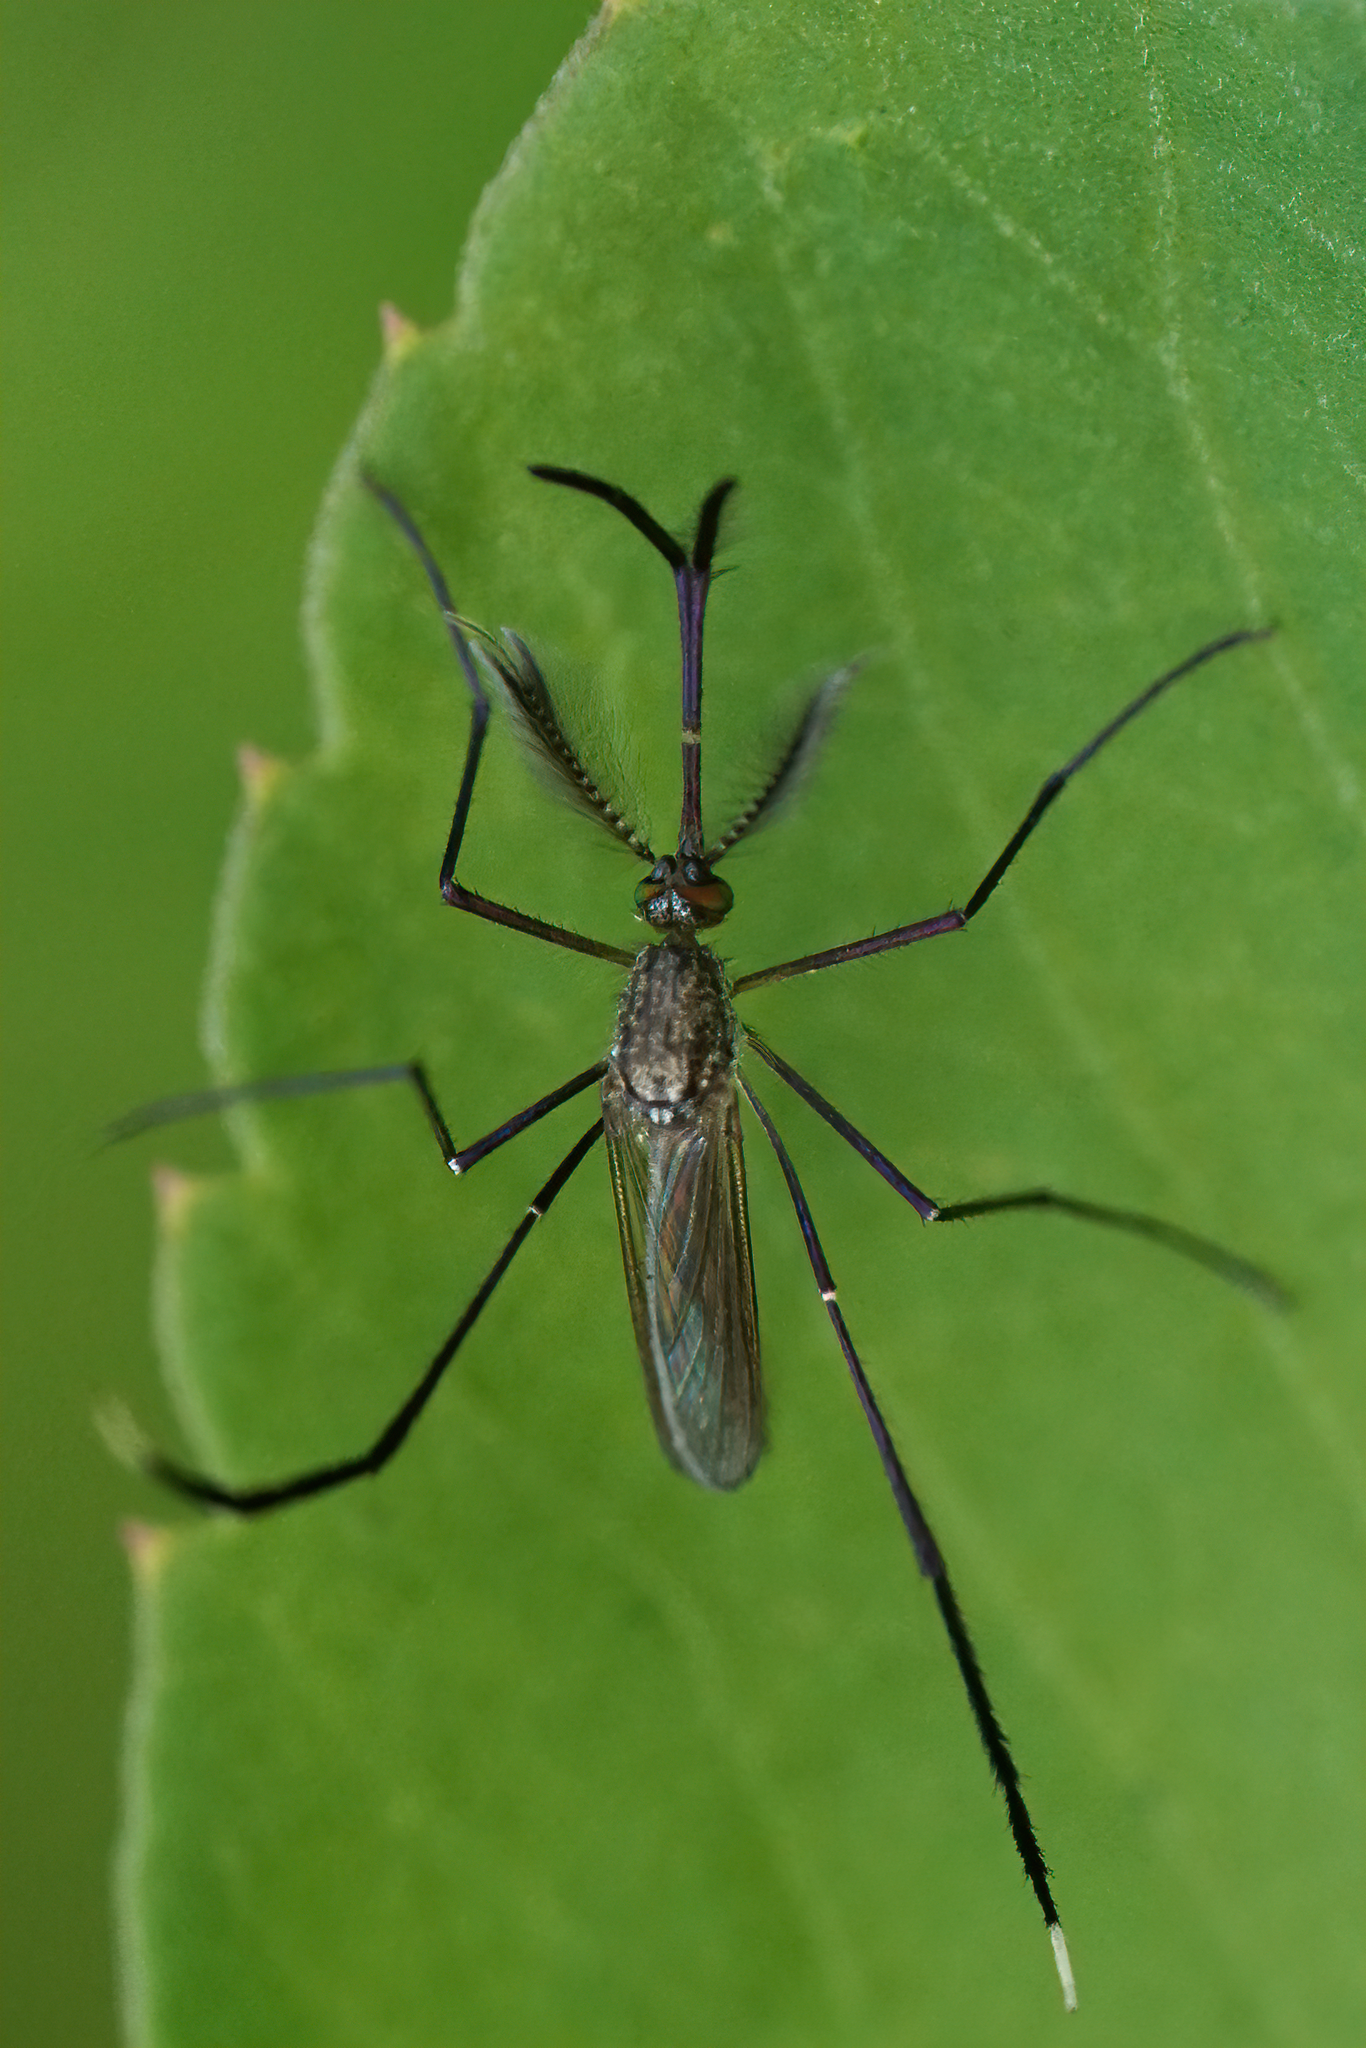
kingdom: Animalia
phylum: Arthropoda
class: Insecta
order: Diptera
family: Culicidae
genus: Psorophora
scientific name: Psorophora ferox
